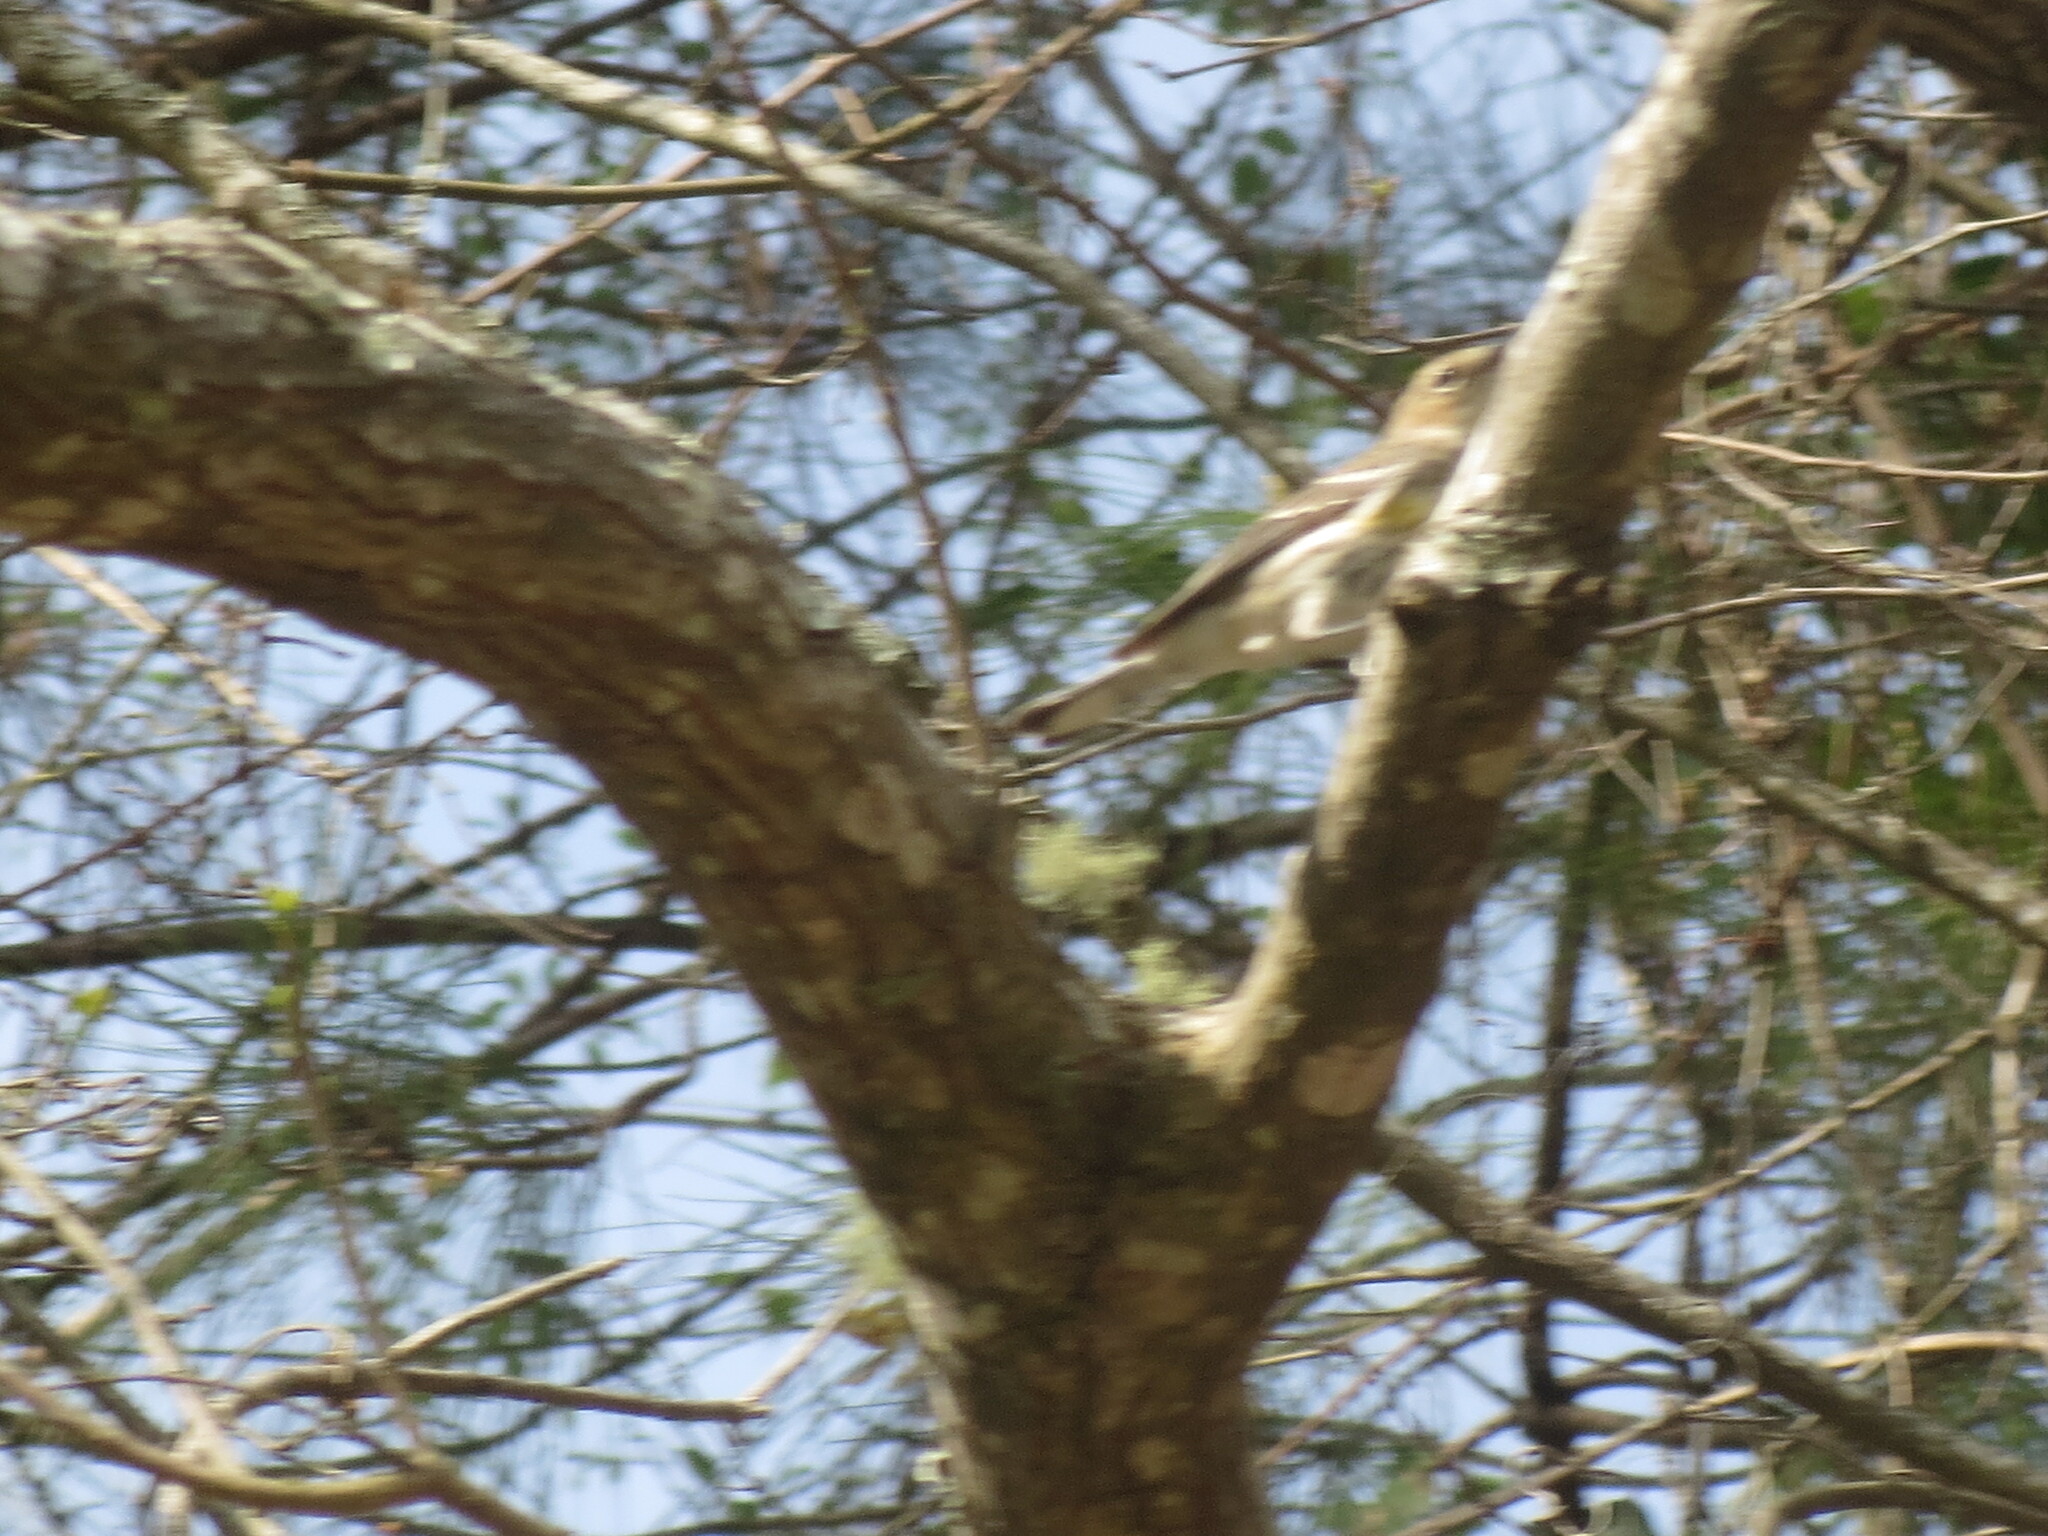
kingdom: Animalia
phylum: Chordata
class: Aves
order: Passeriformes
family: Parulidae
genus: Setophaga
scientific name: Setophaga coronata
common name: Myrtle warbler
